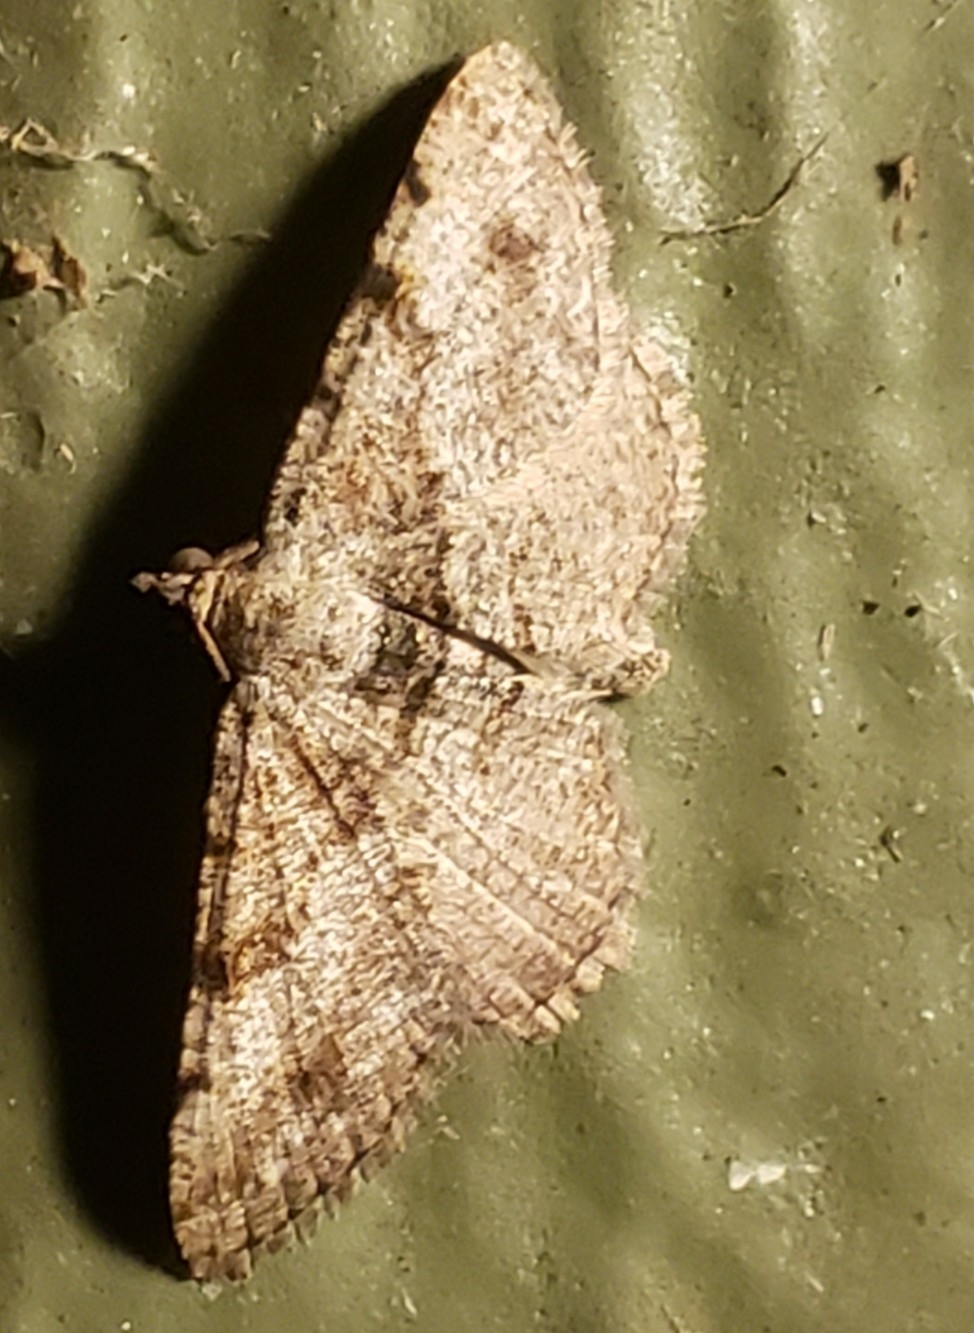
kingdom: Animalia
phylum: Arthropoda
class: Insecta
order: Lepidoptera
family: Geometridae
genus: Digrammia
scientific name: Digrammia gnophosaria
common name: Hollow-spotted angle
